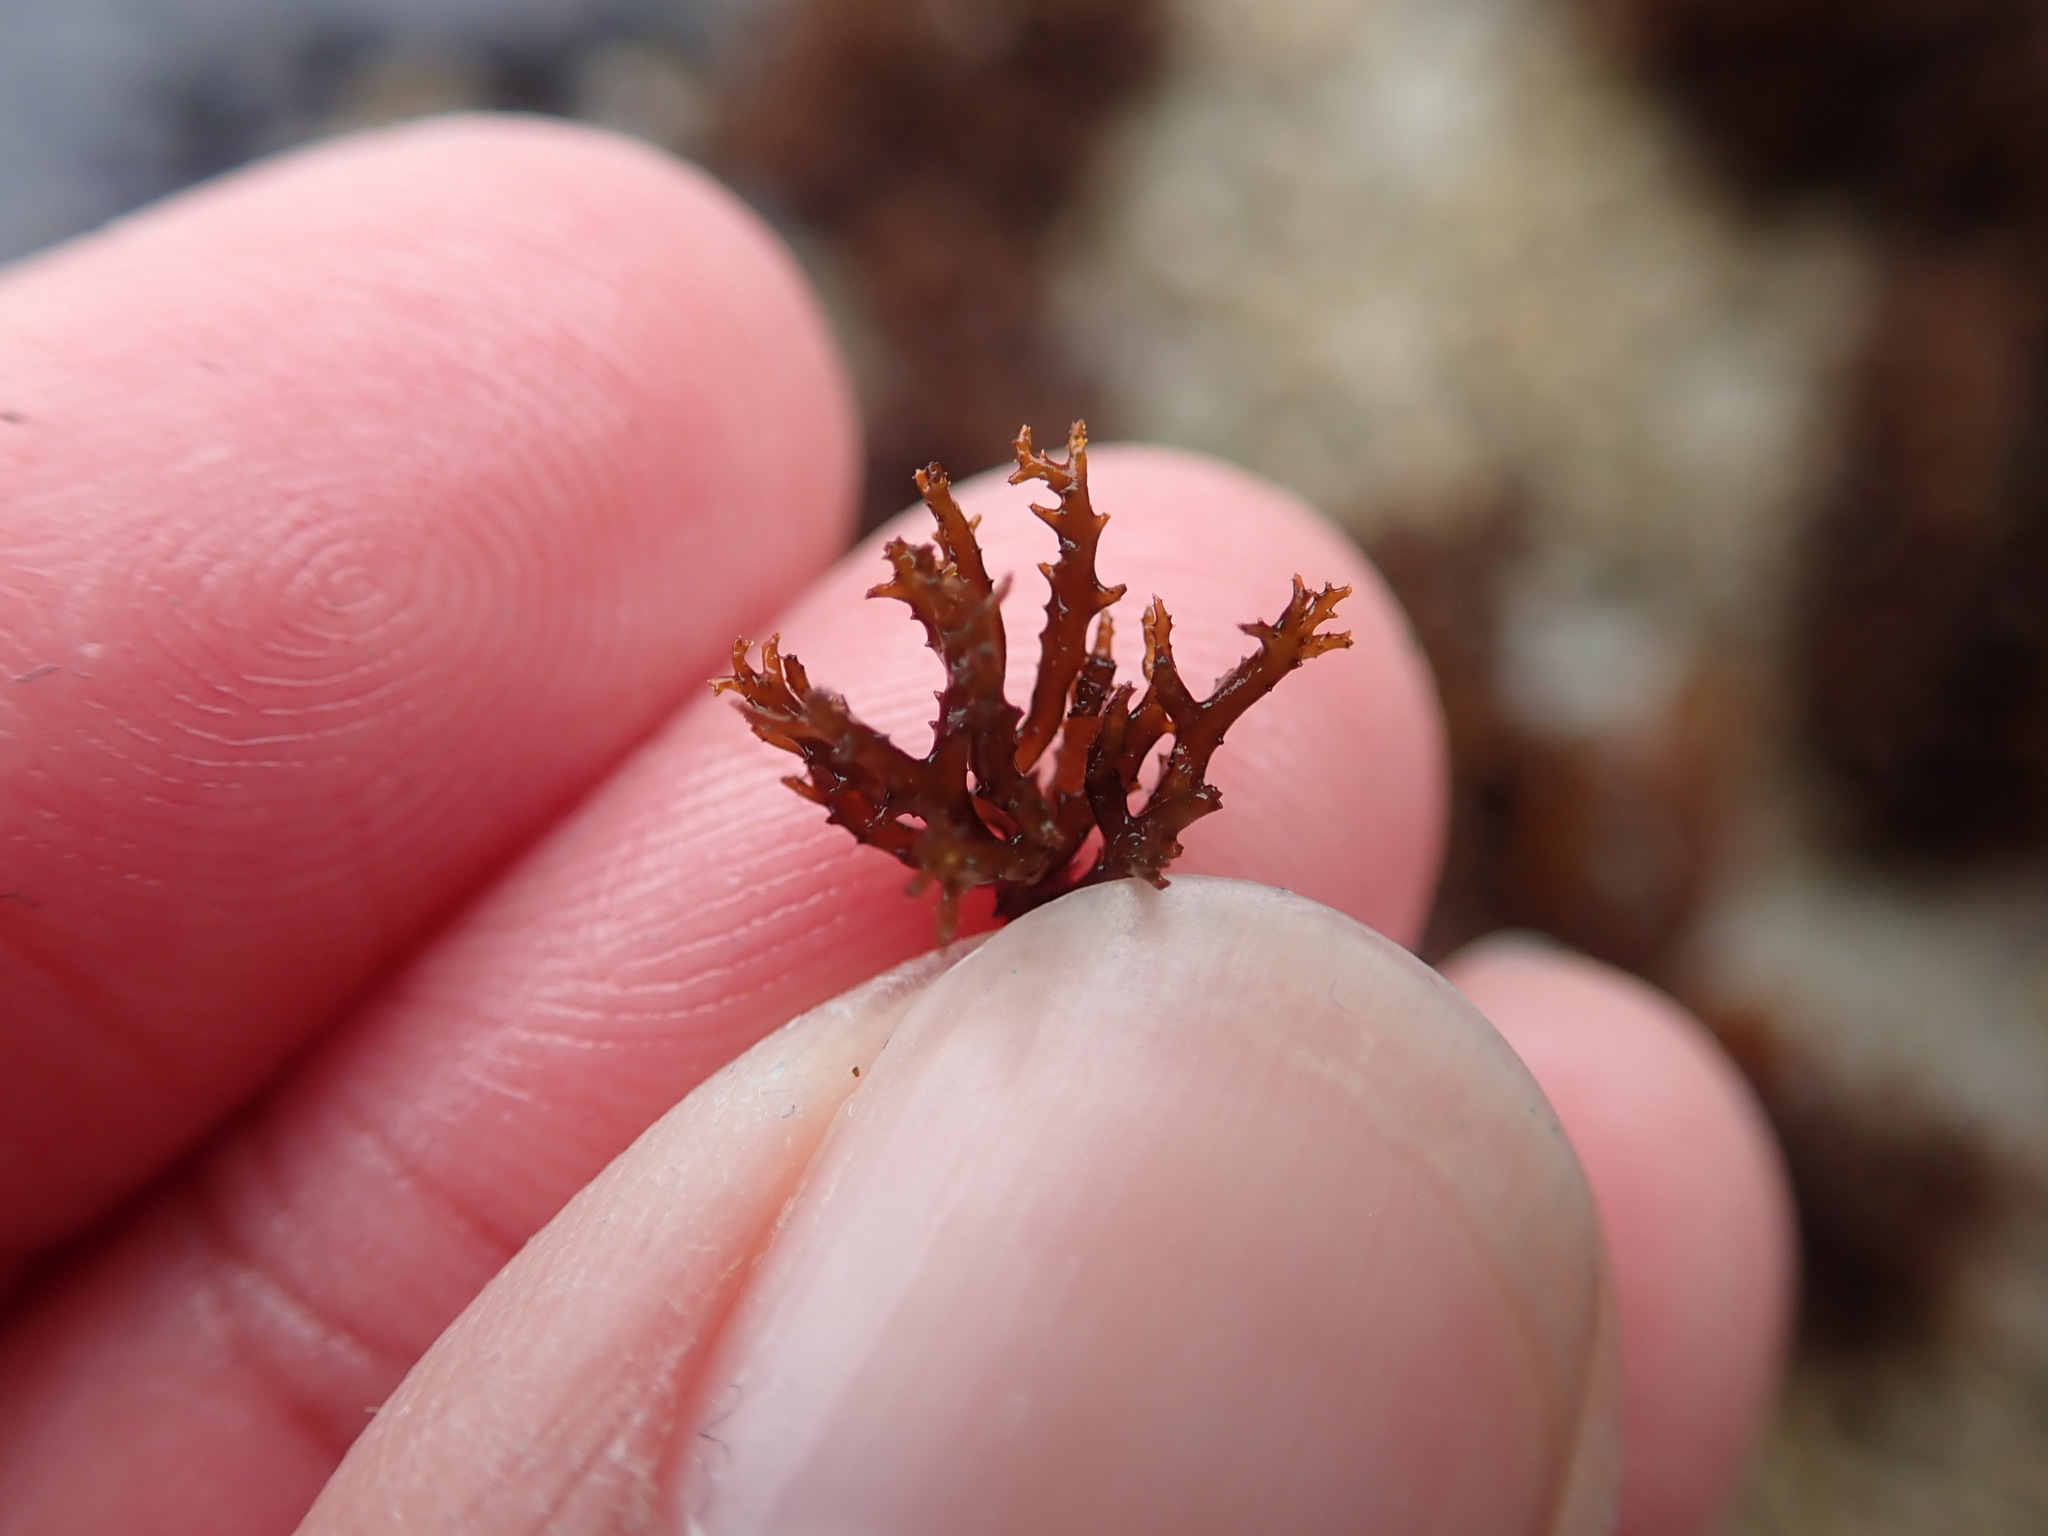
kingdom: Plantae
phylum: Rhodophyta
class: Florideophyceae
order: Gigartinales
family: Endocladiaceae
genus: Endocladia
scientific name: Endocladia muricata
